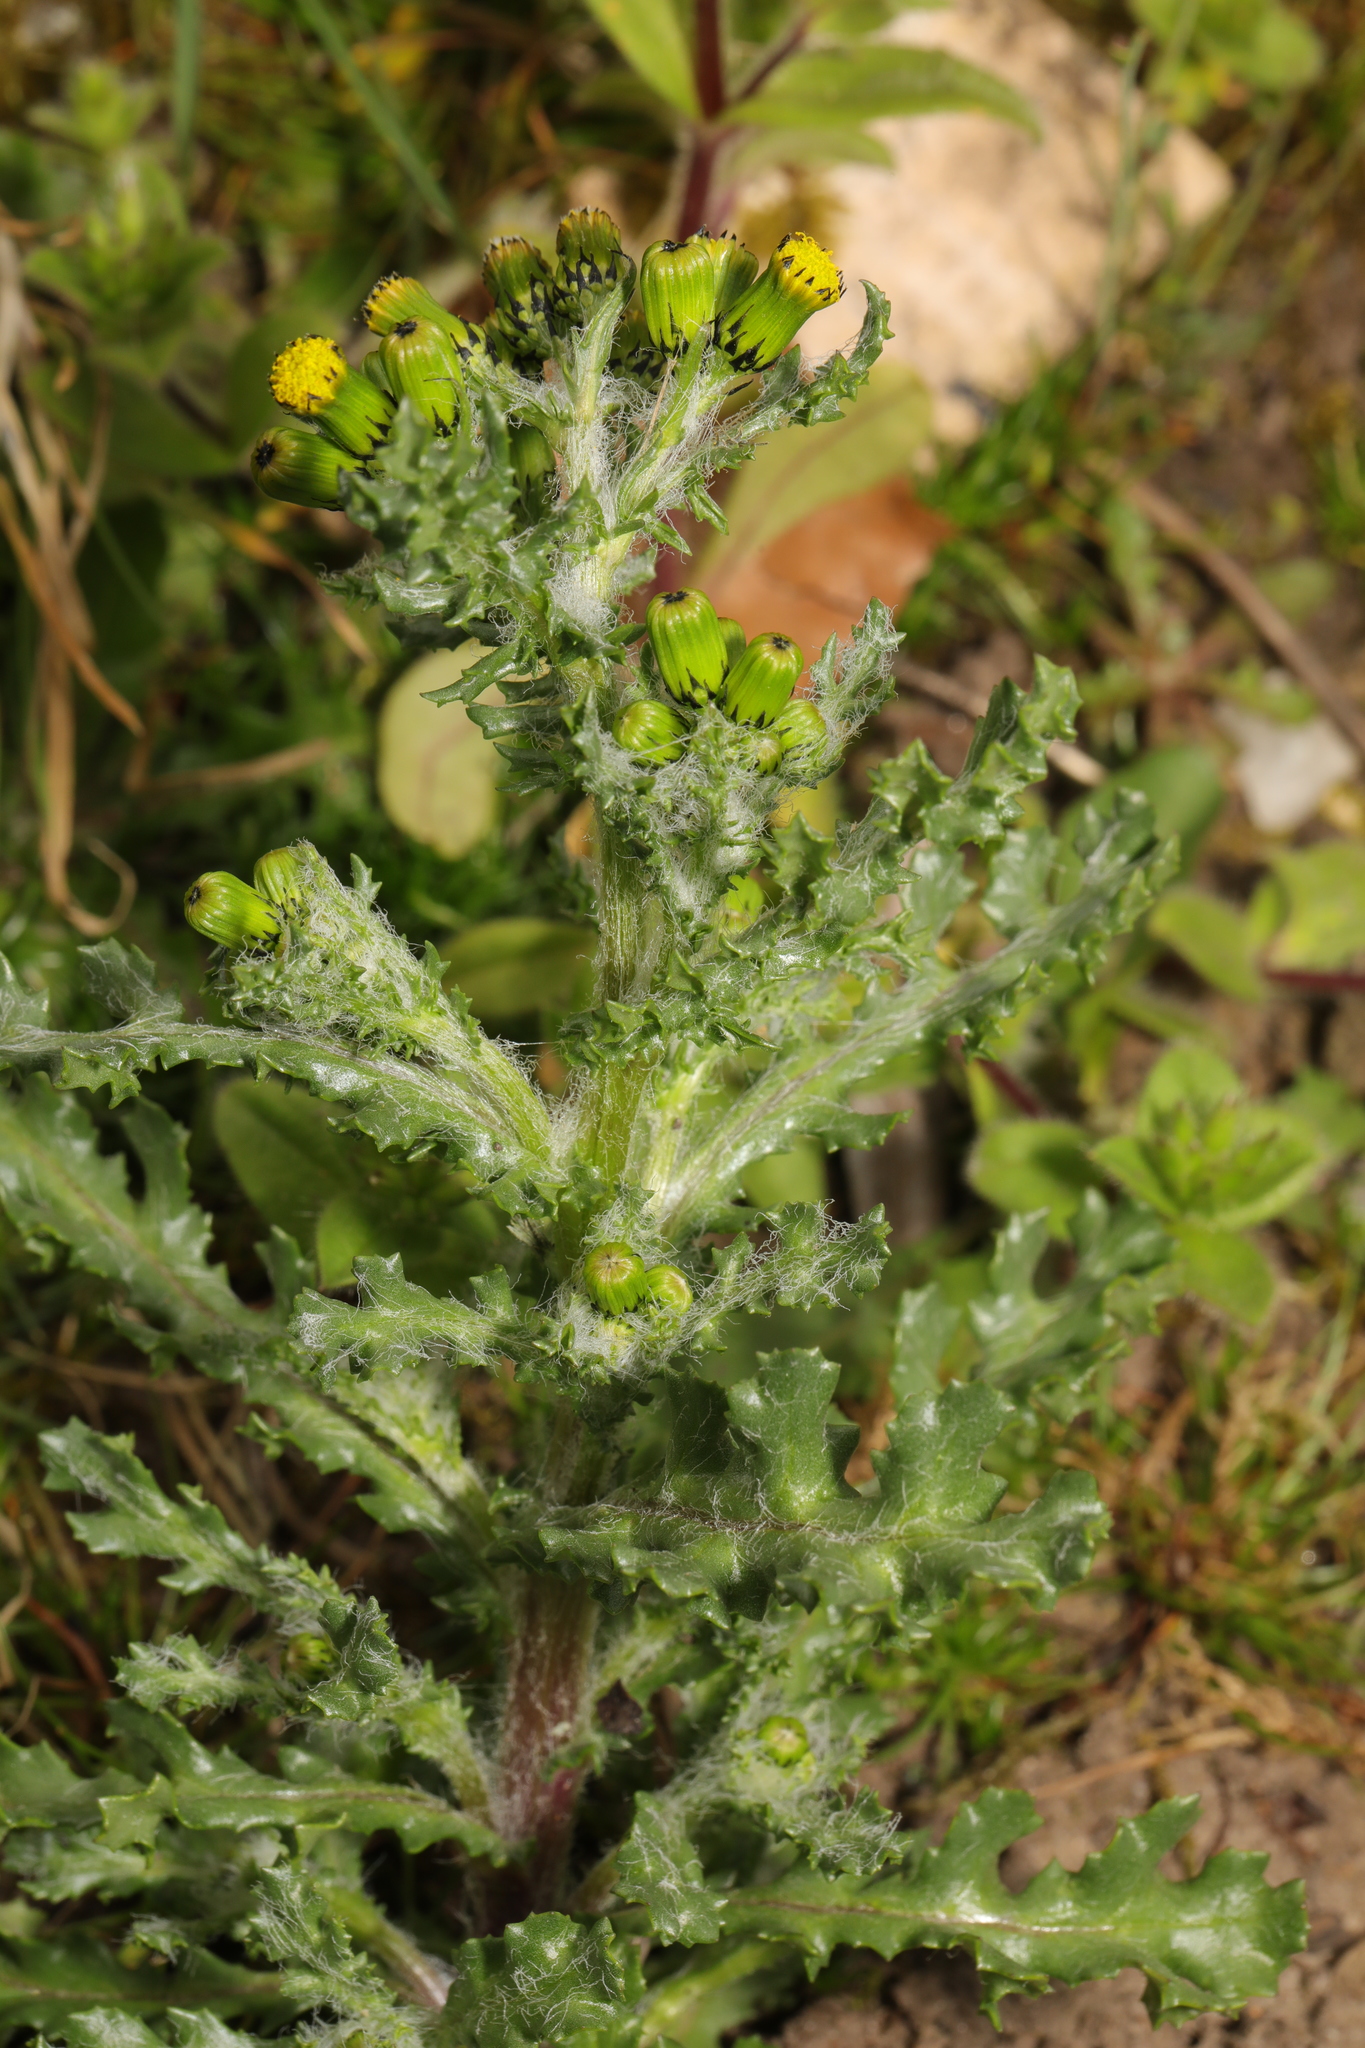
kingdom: Plantae
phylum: Tracheophyta
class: Magnoliopsida
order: Asterales
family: Asteraceae
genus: Senecio
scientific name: Senecio vulgaris
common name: Old-man-in-the-spring
